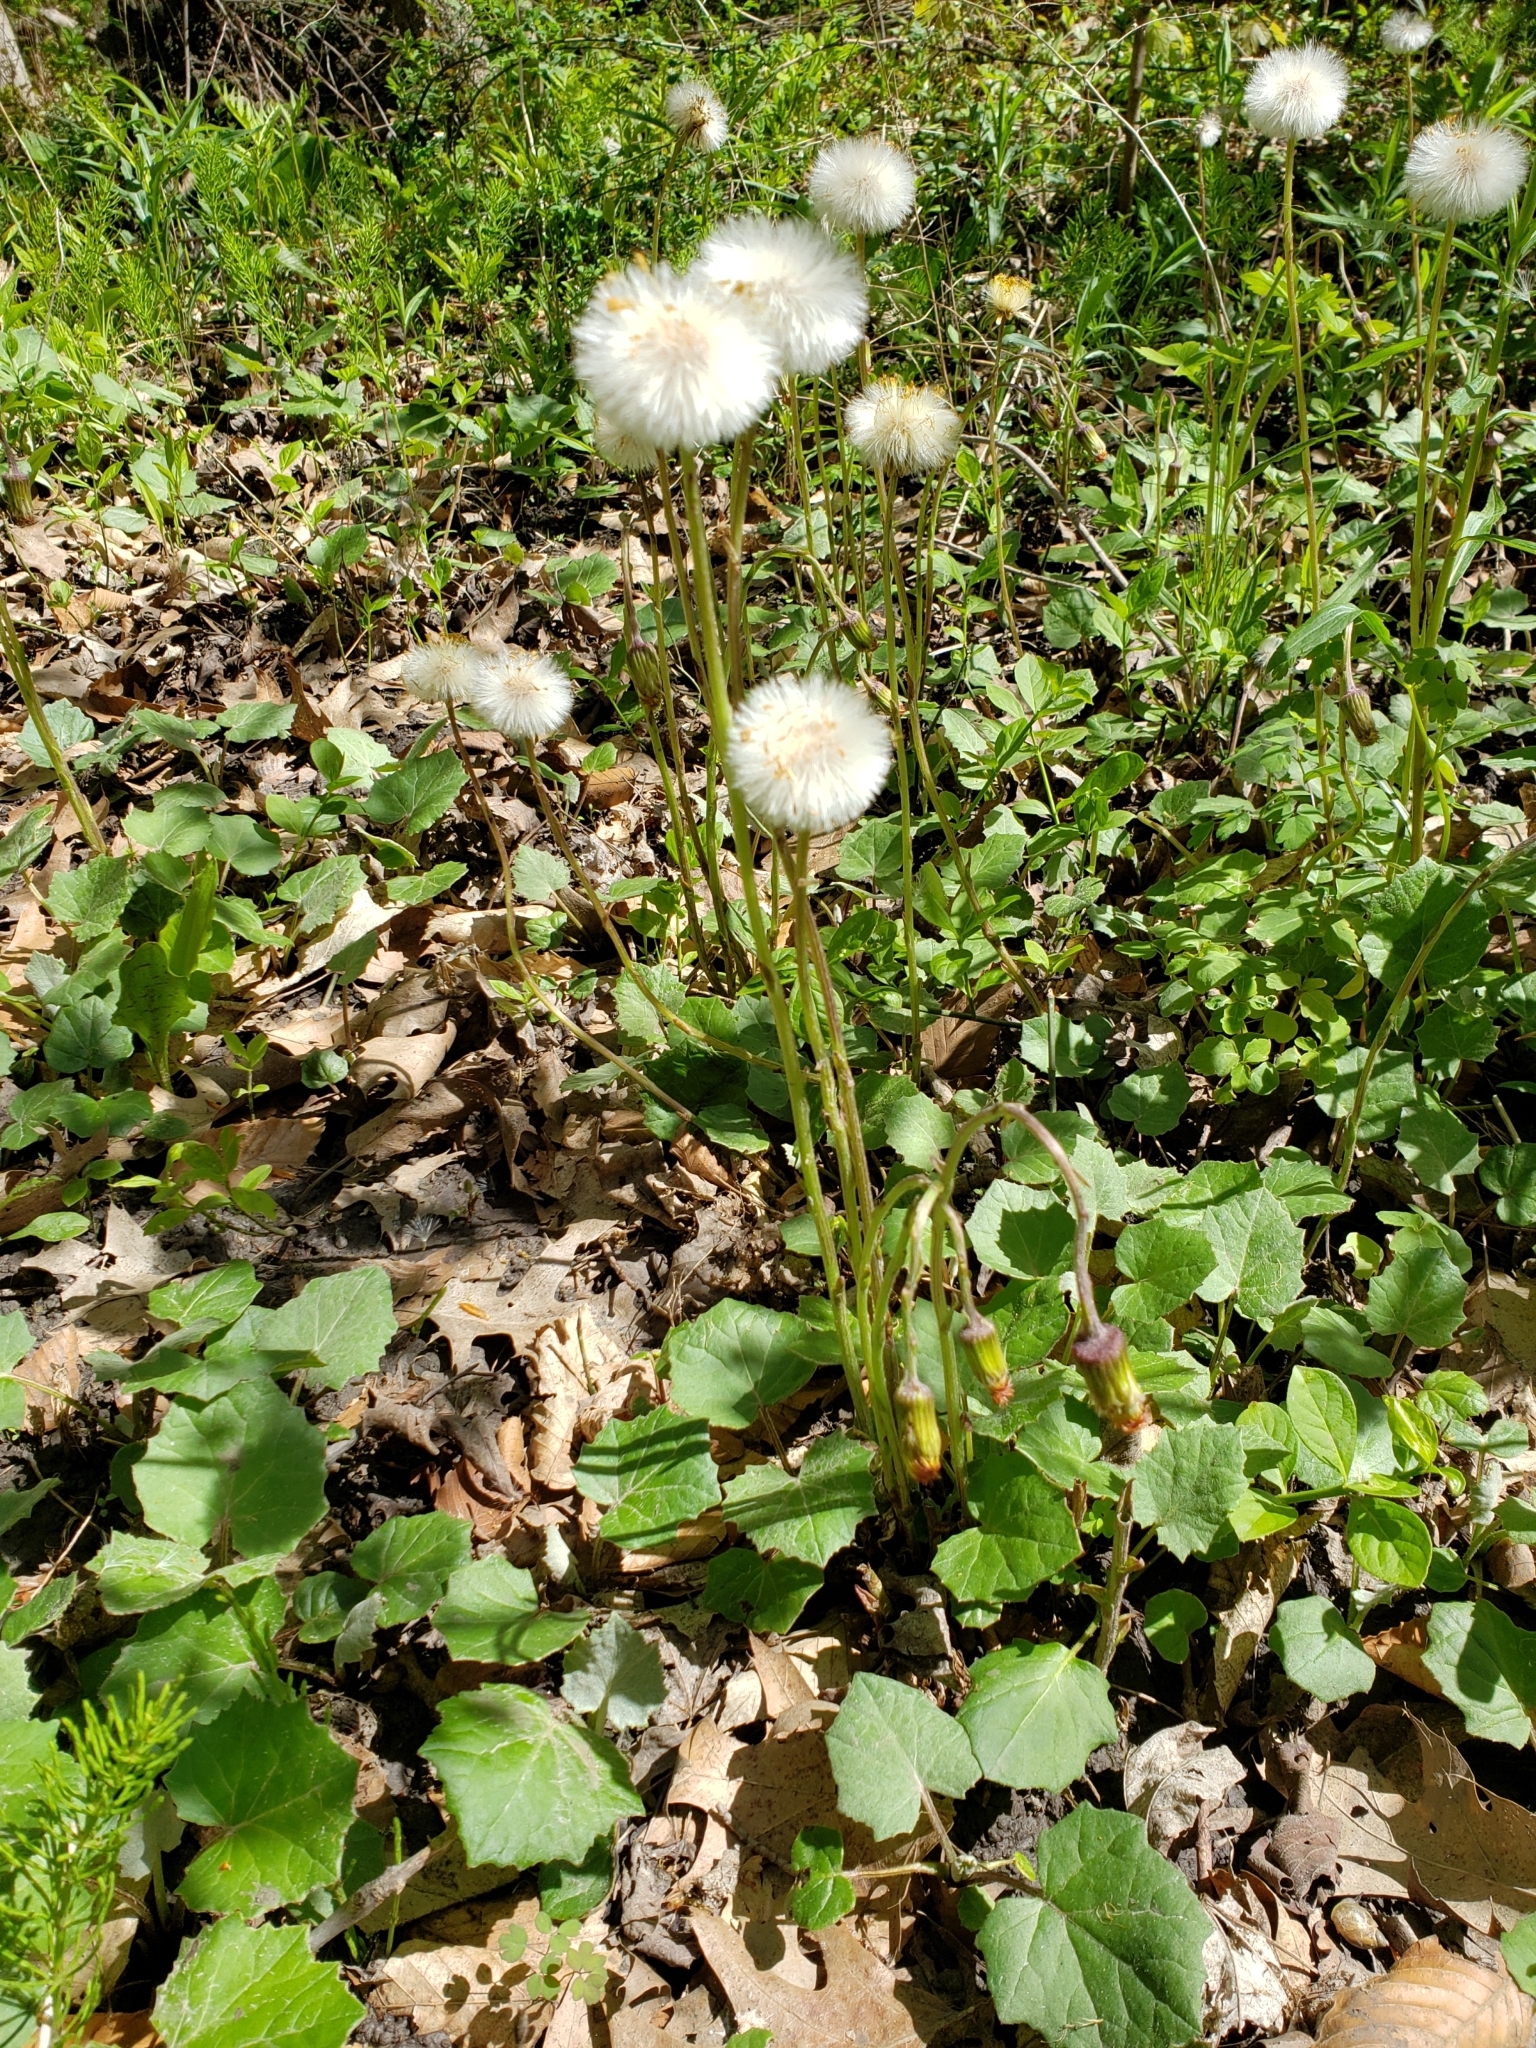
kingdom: Plantae
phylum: Tracheophyta
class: Magnoliopsida
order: Asterales
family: Asteraceae
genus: Tussilago
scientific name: Tussilago farfara
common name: Coltsfoot
